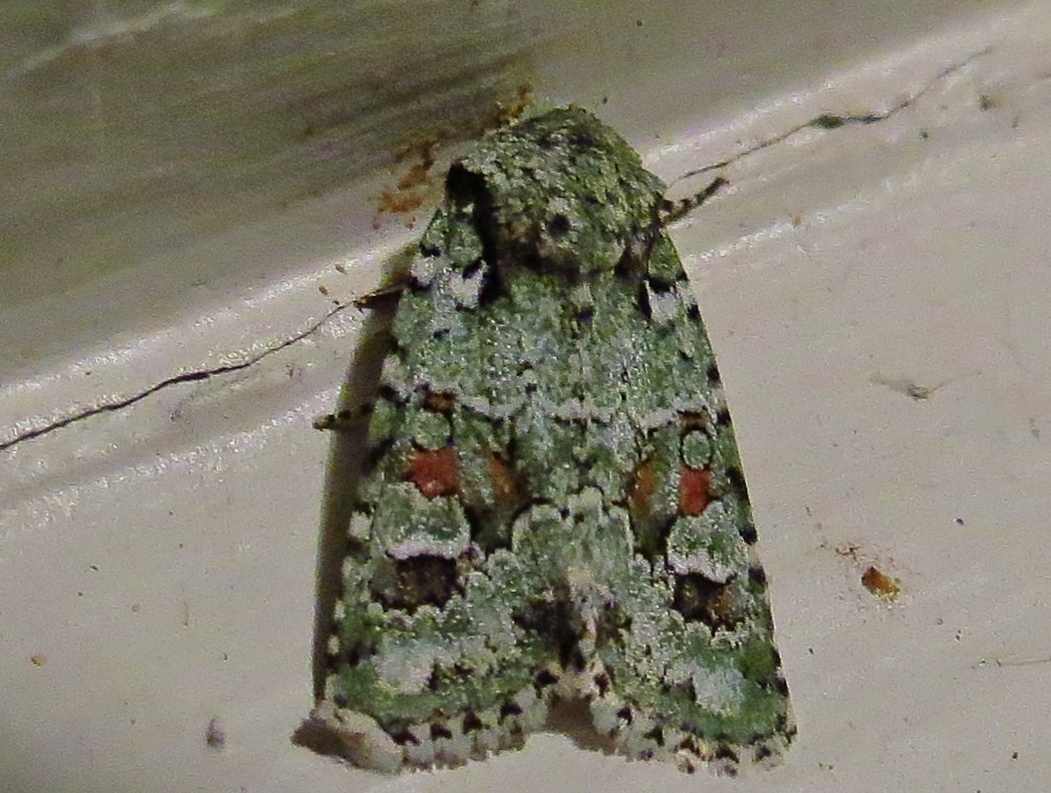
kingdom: Animalia
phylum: Arthropoda
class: Insecta
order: Lepidoptera
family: Noctuidae
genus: Lacinipolia
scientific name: Lacinipolia laudabilis
